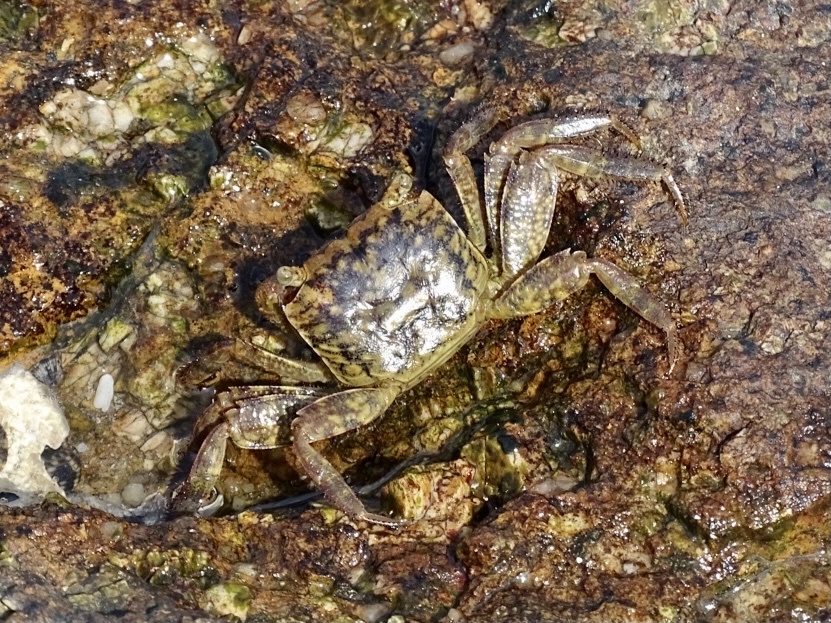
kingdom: Animalia
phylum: Arthropoda
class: Malacostraca
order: Decapoda
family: Sesarmidae
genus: Parasesarma
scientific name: Parasesarma pictum
